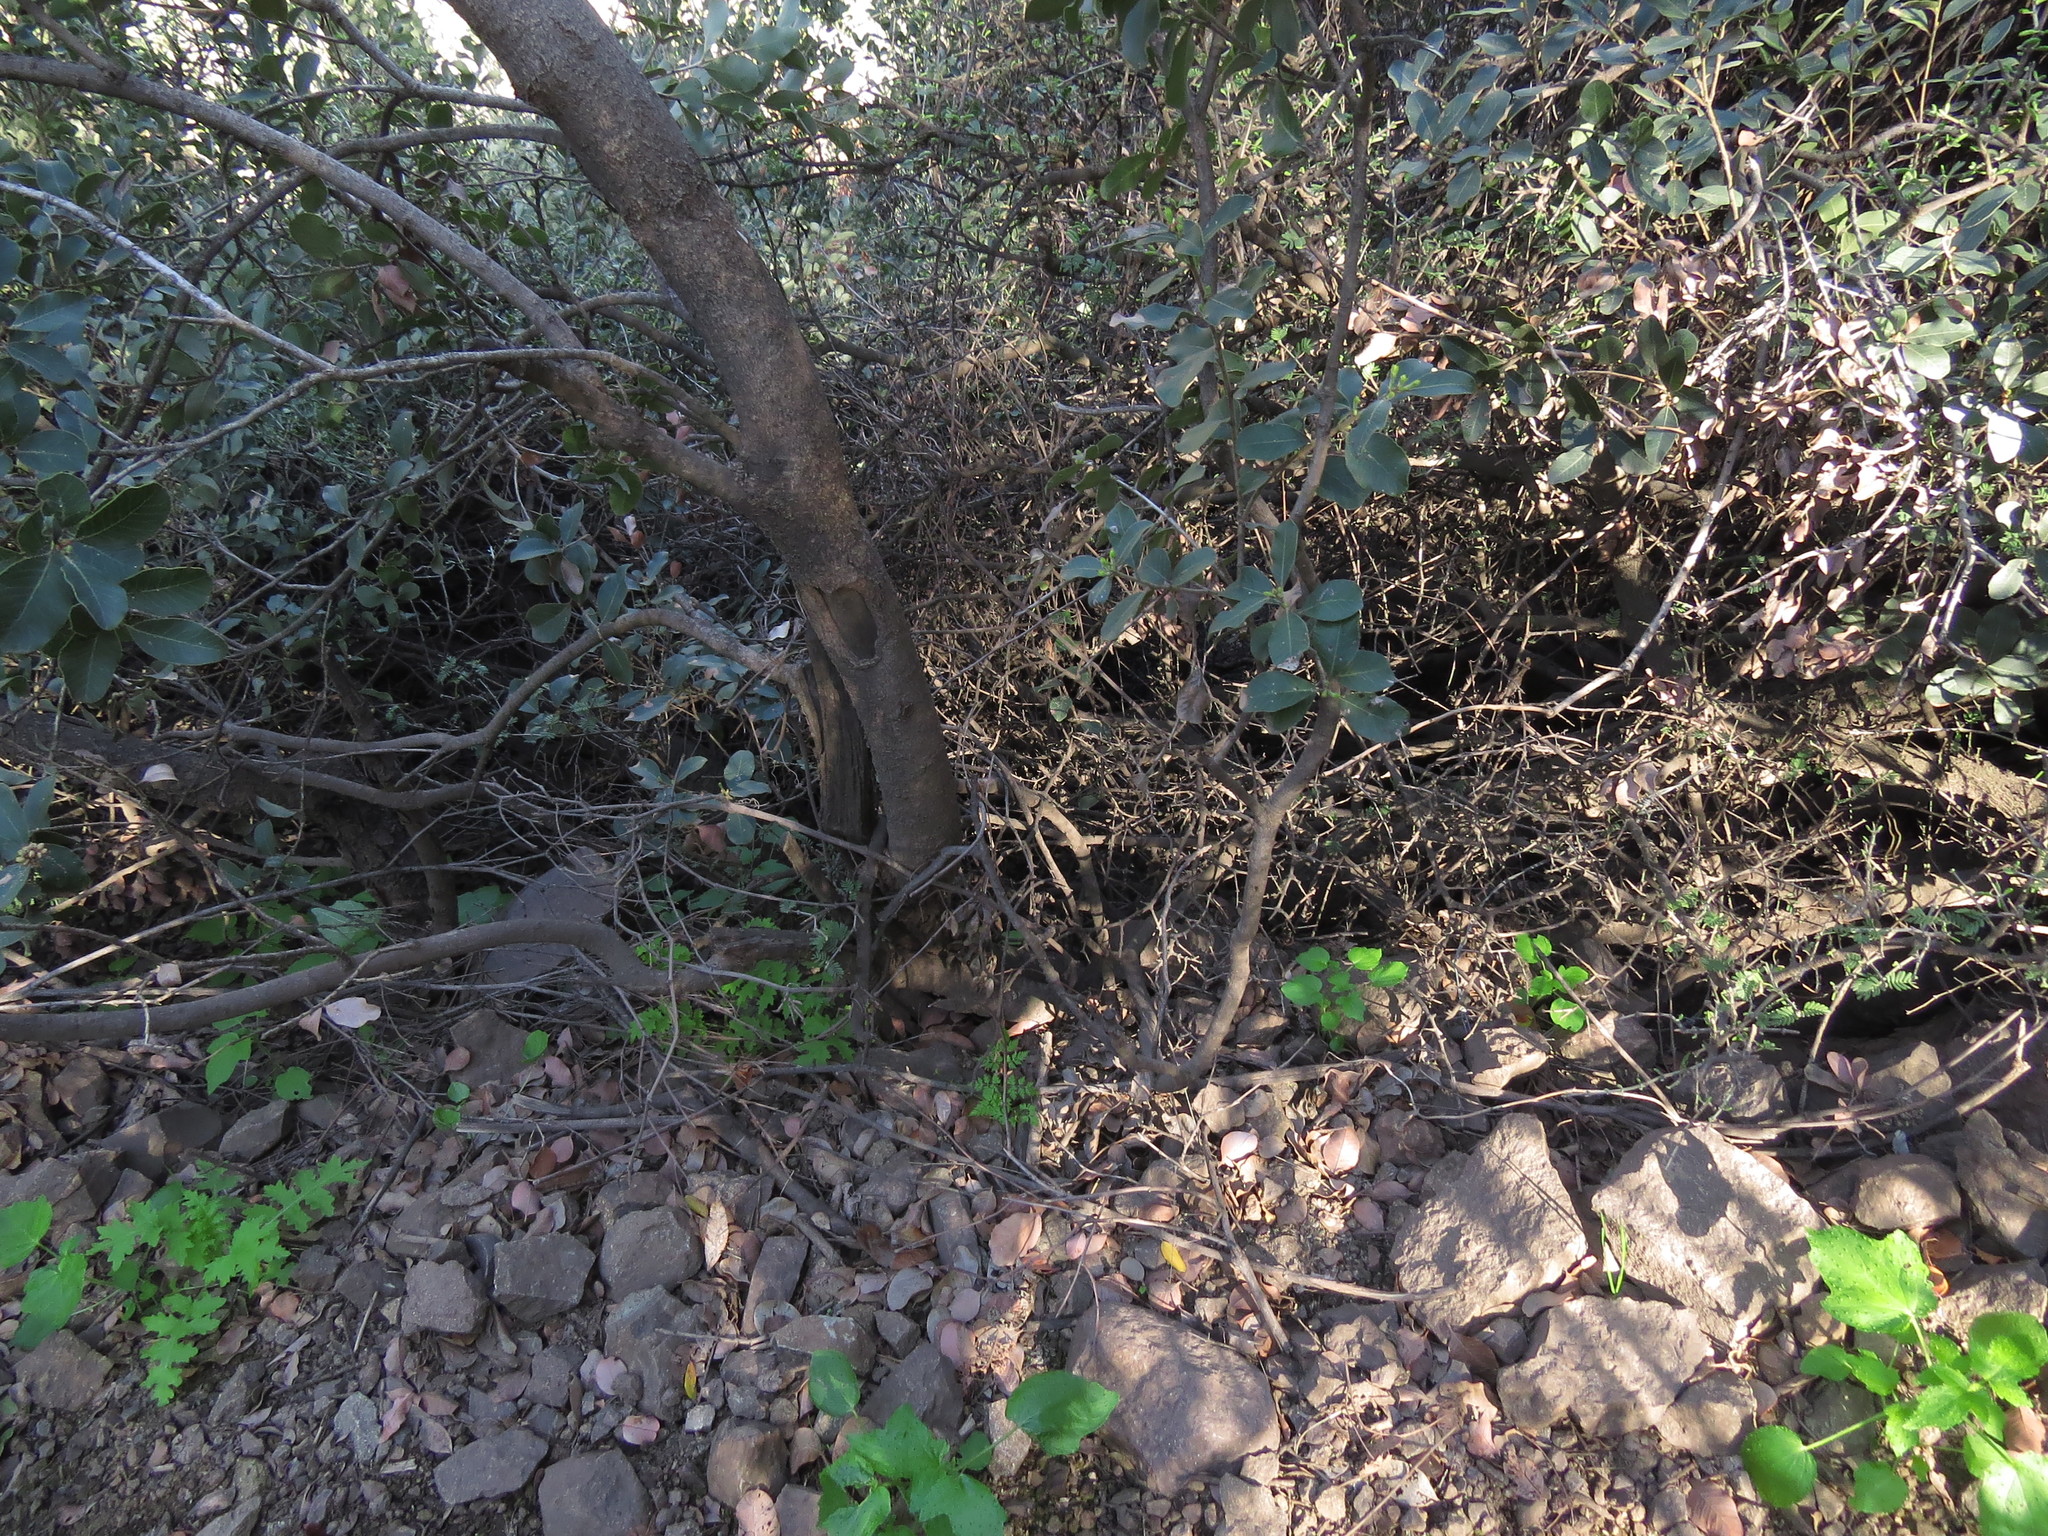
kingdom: Plantae
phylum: Tracheophyta
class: Magnoliopsida
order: Sapindales
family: Anacardiaceae
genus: Lithraea
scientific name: Lithraea caustica
